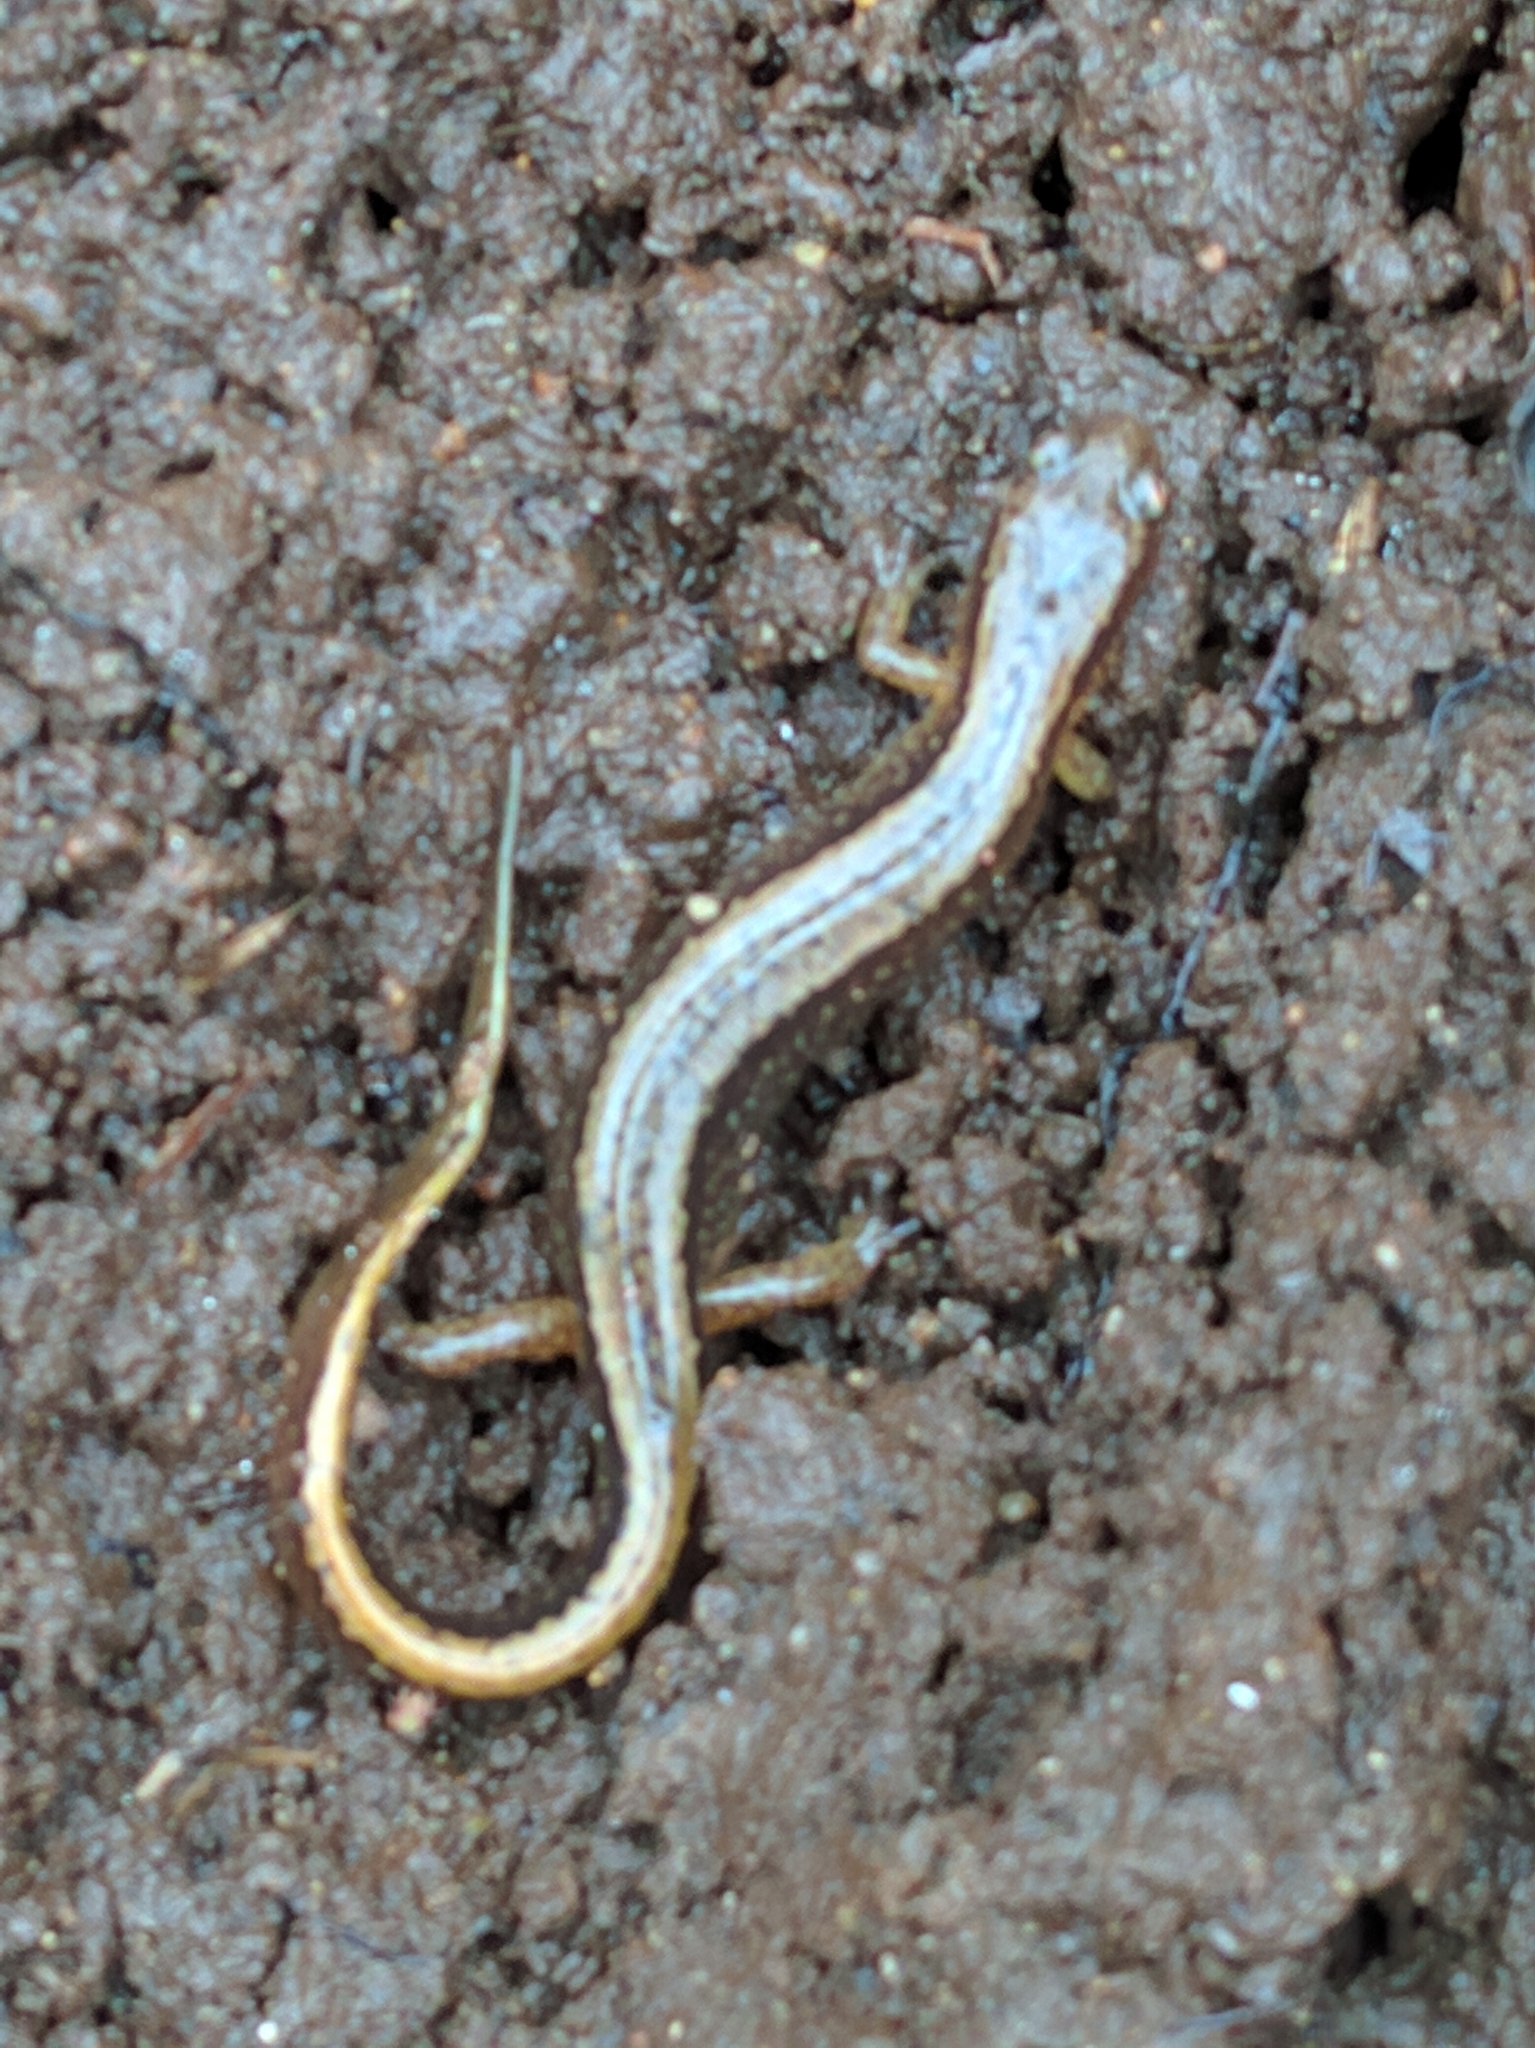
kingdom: Animalia
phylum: Chordata
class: Amphibia
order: Caudata
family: Plethodontidae
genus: Eurycea
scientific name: Eurycea bislineata
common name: Northern two-lined salamander
